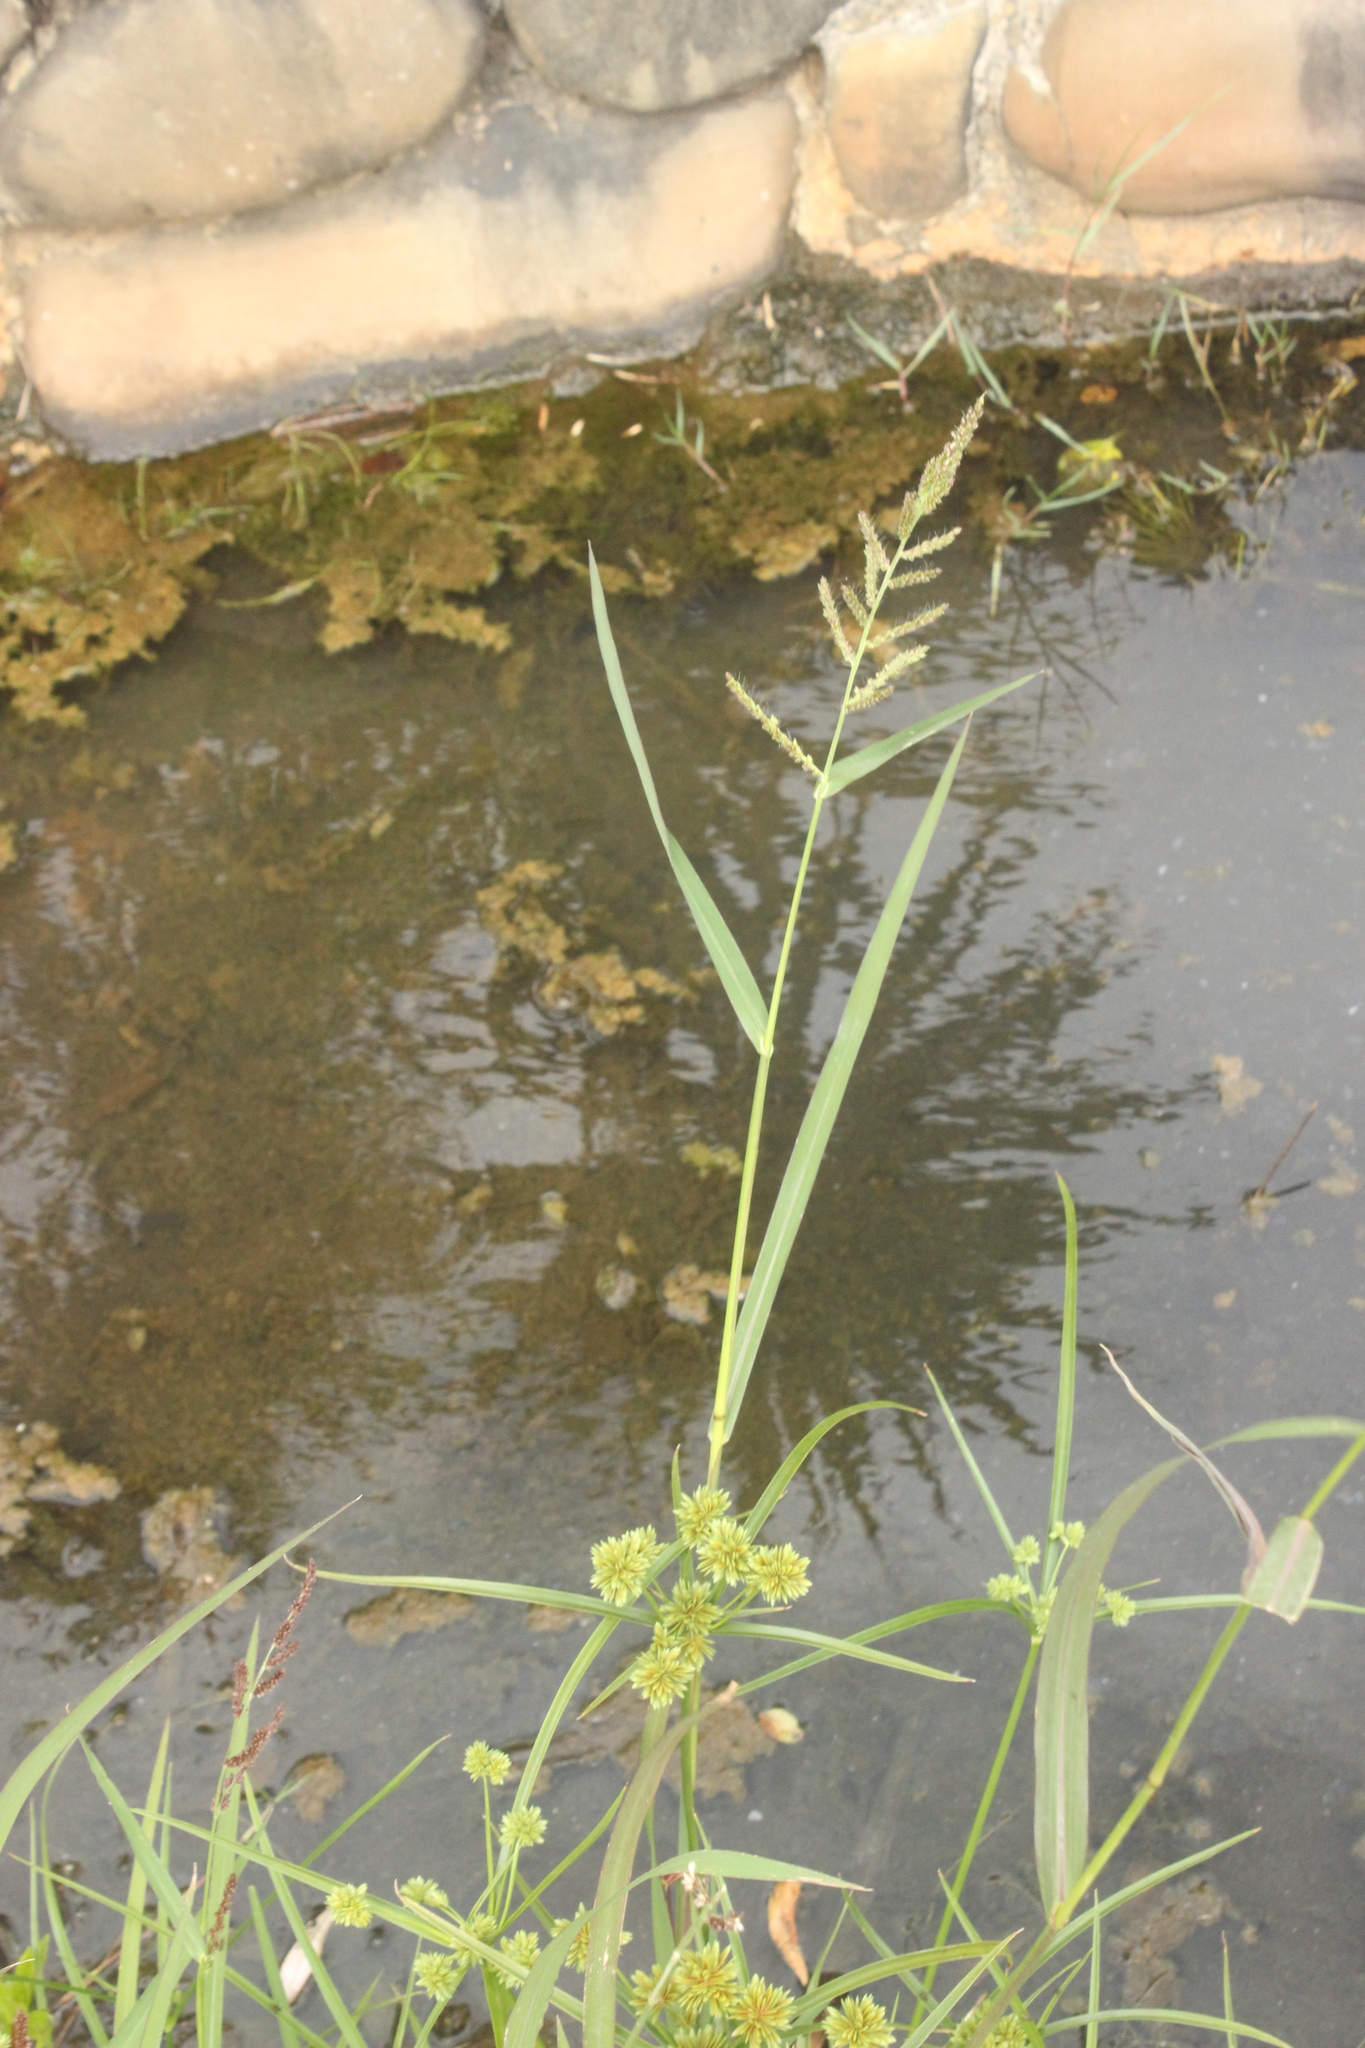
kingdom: Plantae
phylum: Tracheophyta
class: Liliopsida
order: Poales
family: Poaceae
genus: Echinochloa
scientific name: Echinochloa crus-galli
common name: Cockspur
